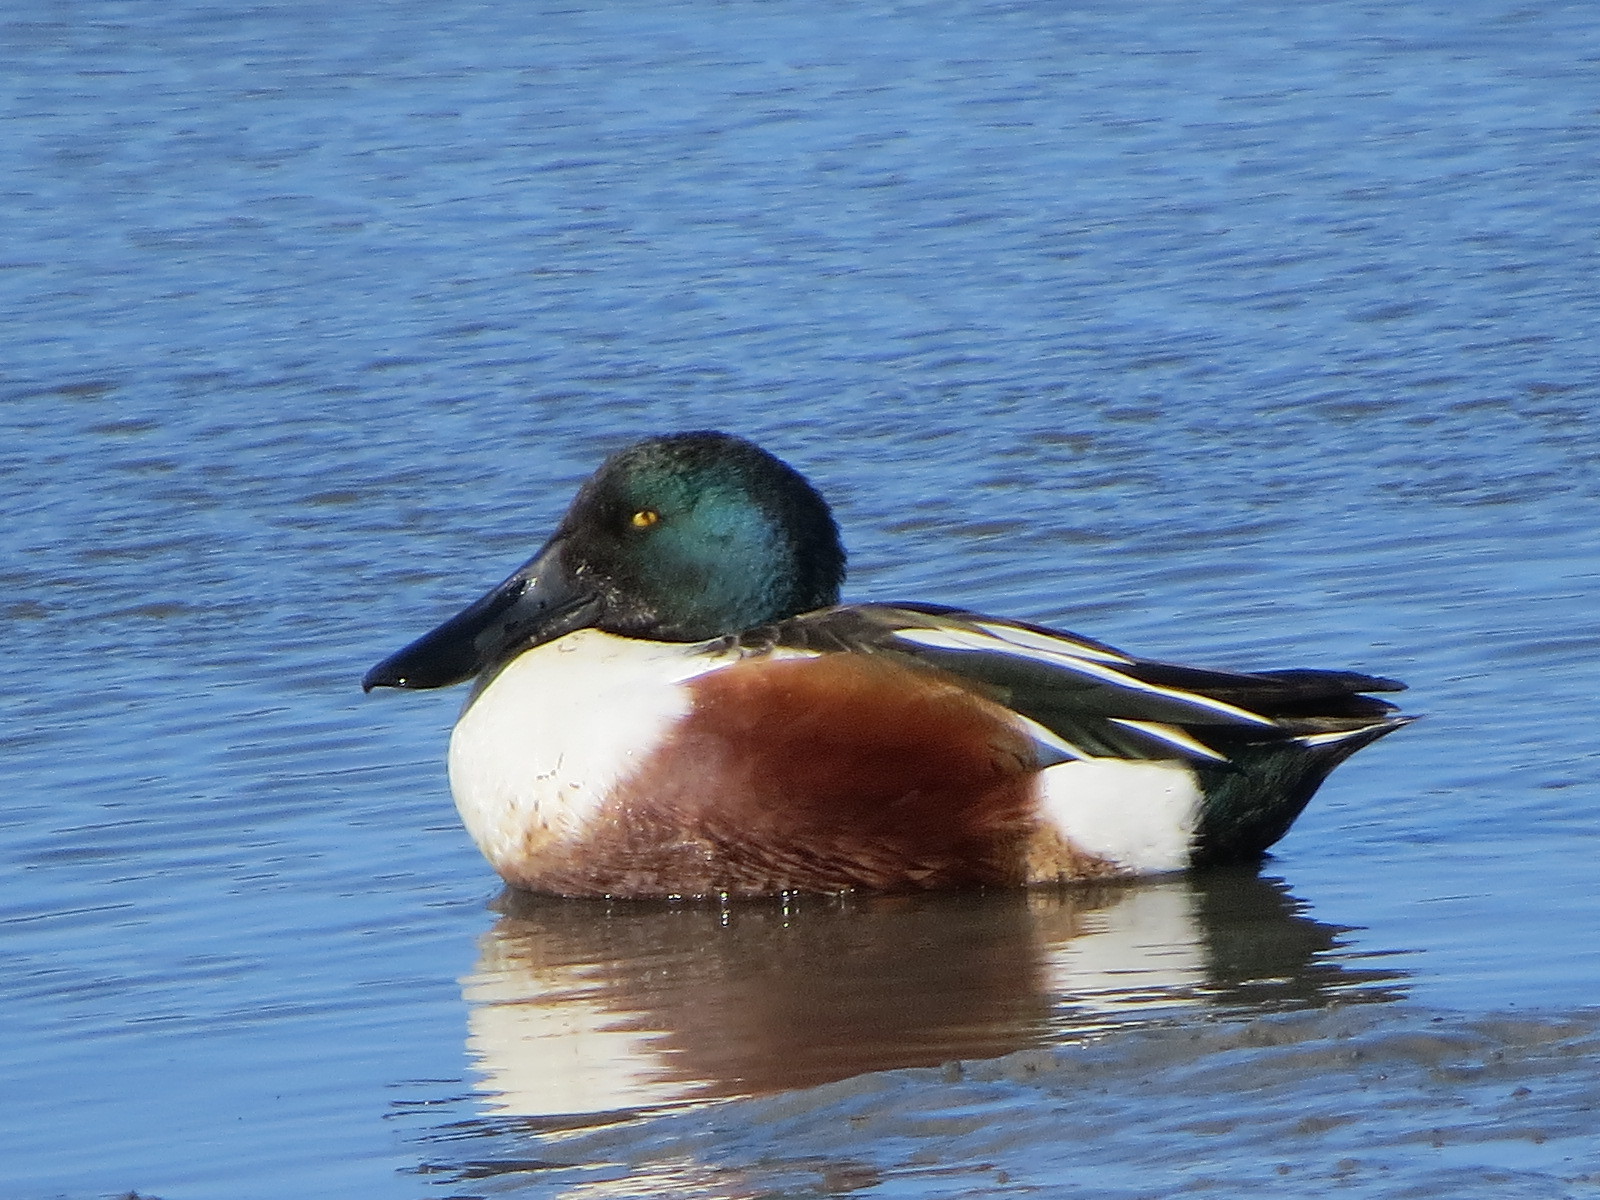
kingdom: Animalia
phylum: Chordata
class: Aves
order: Anseriformes
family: Anatidae
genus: Spatula
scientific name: Spatula clypeata
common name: Northern shoveler
